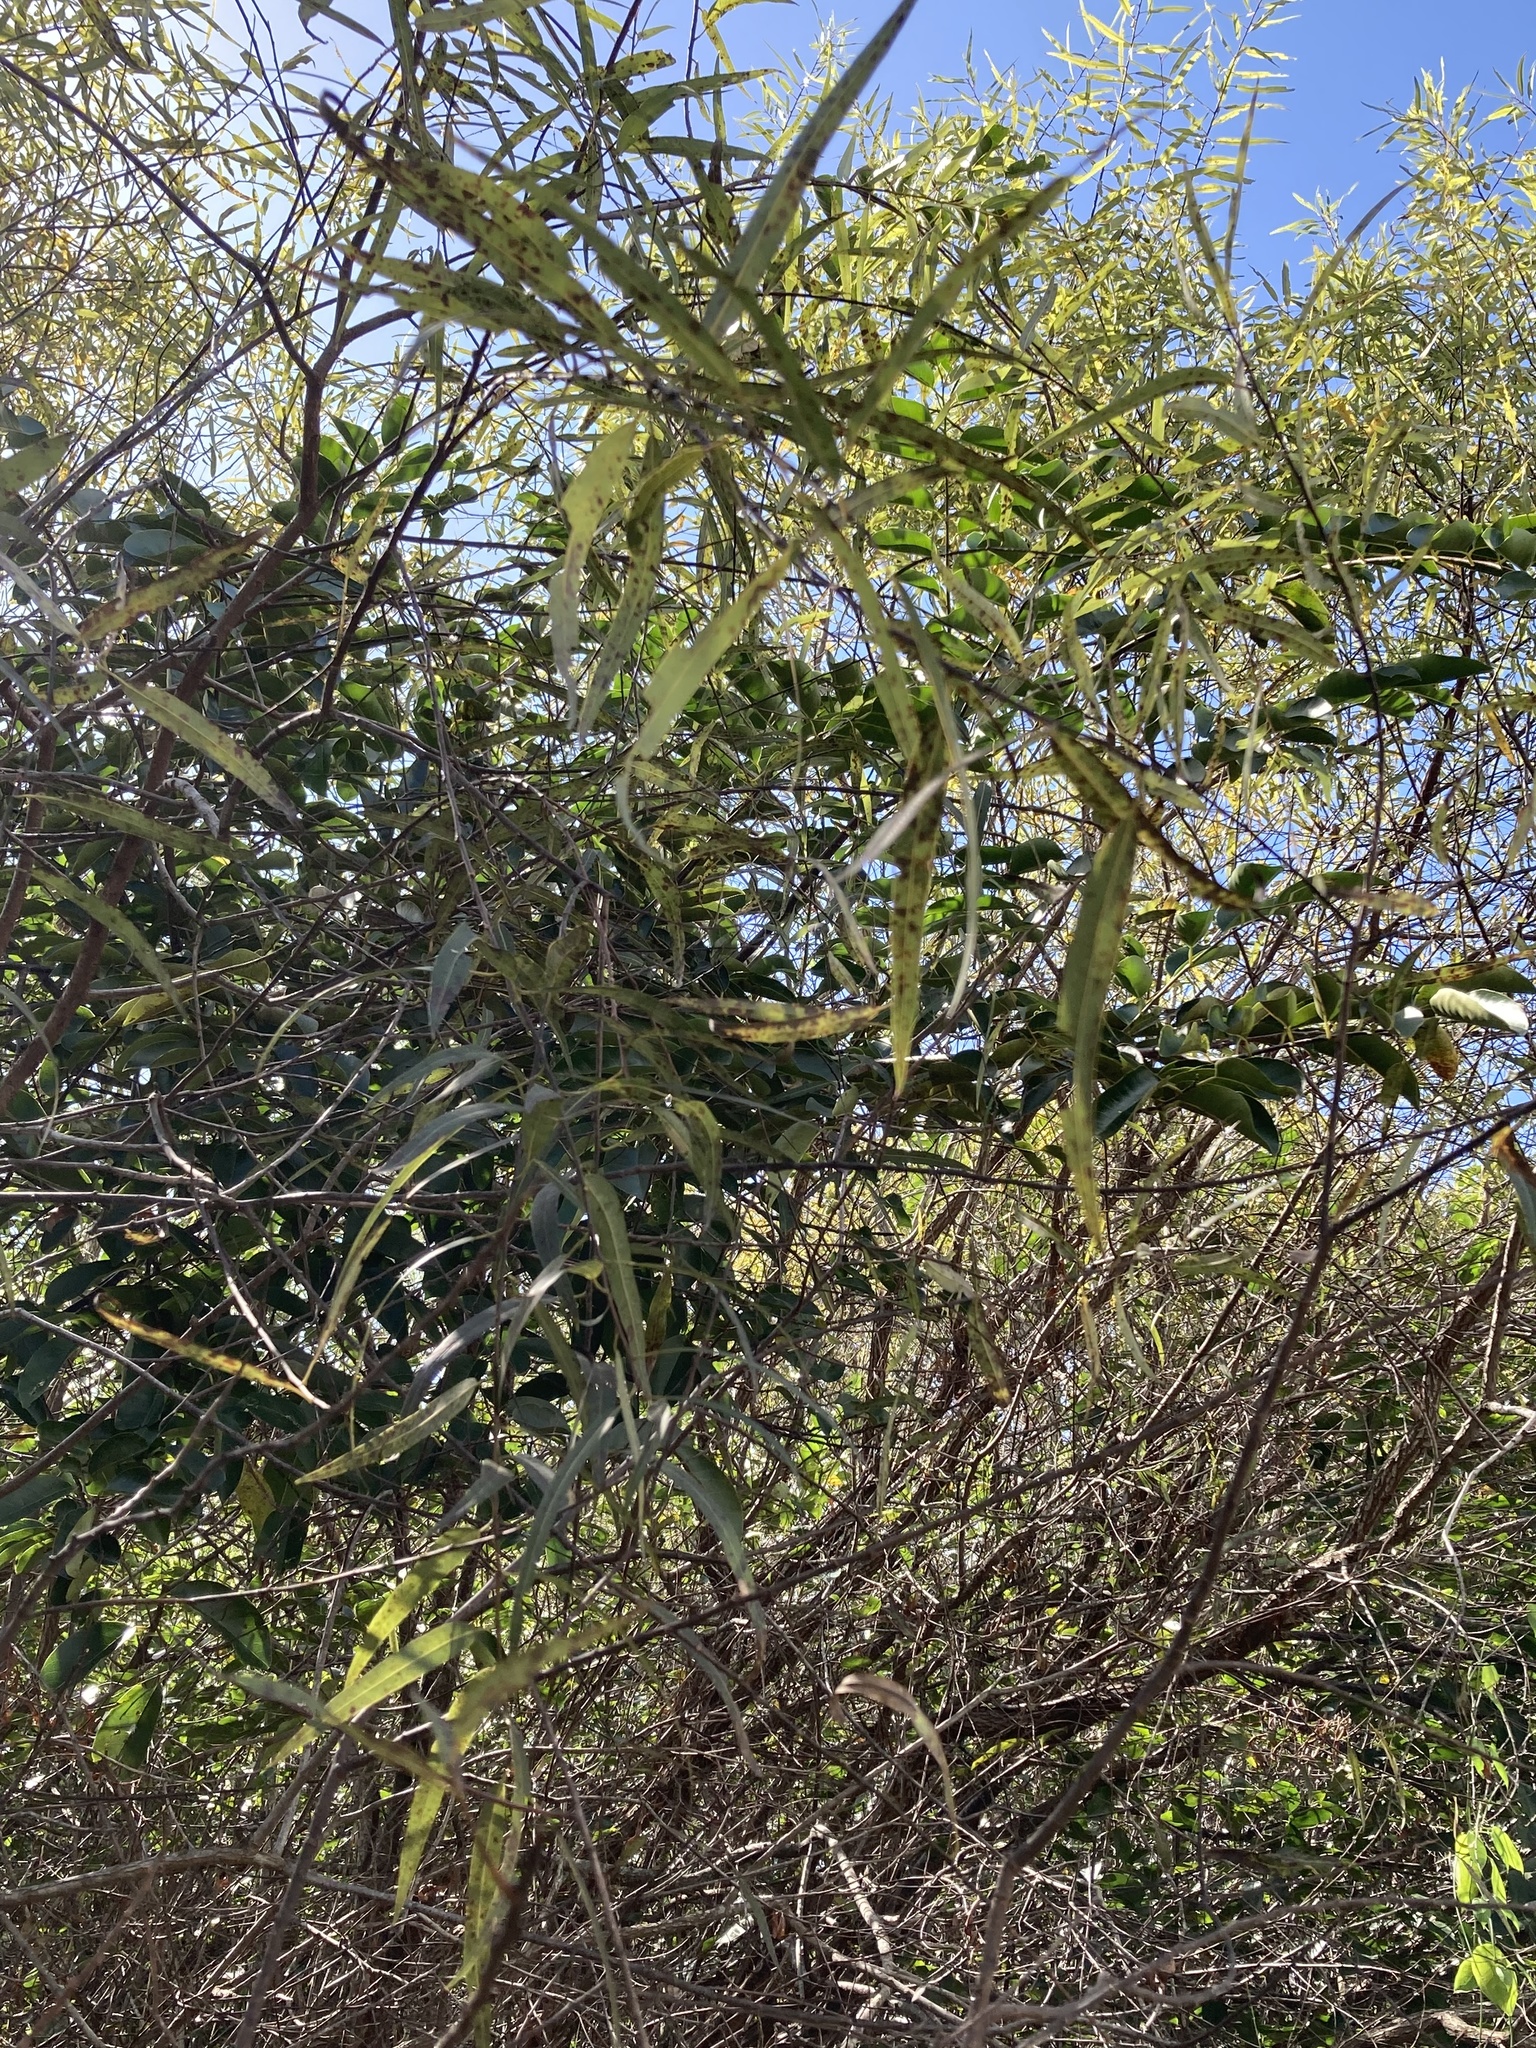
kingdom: Plantae
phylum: Tracheophyta
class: Magnoliopsida
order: Malpighiales
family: Salicaceae
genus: Salix
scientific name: Salix caroliniana
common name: Carolina willow
